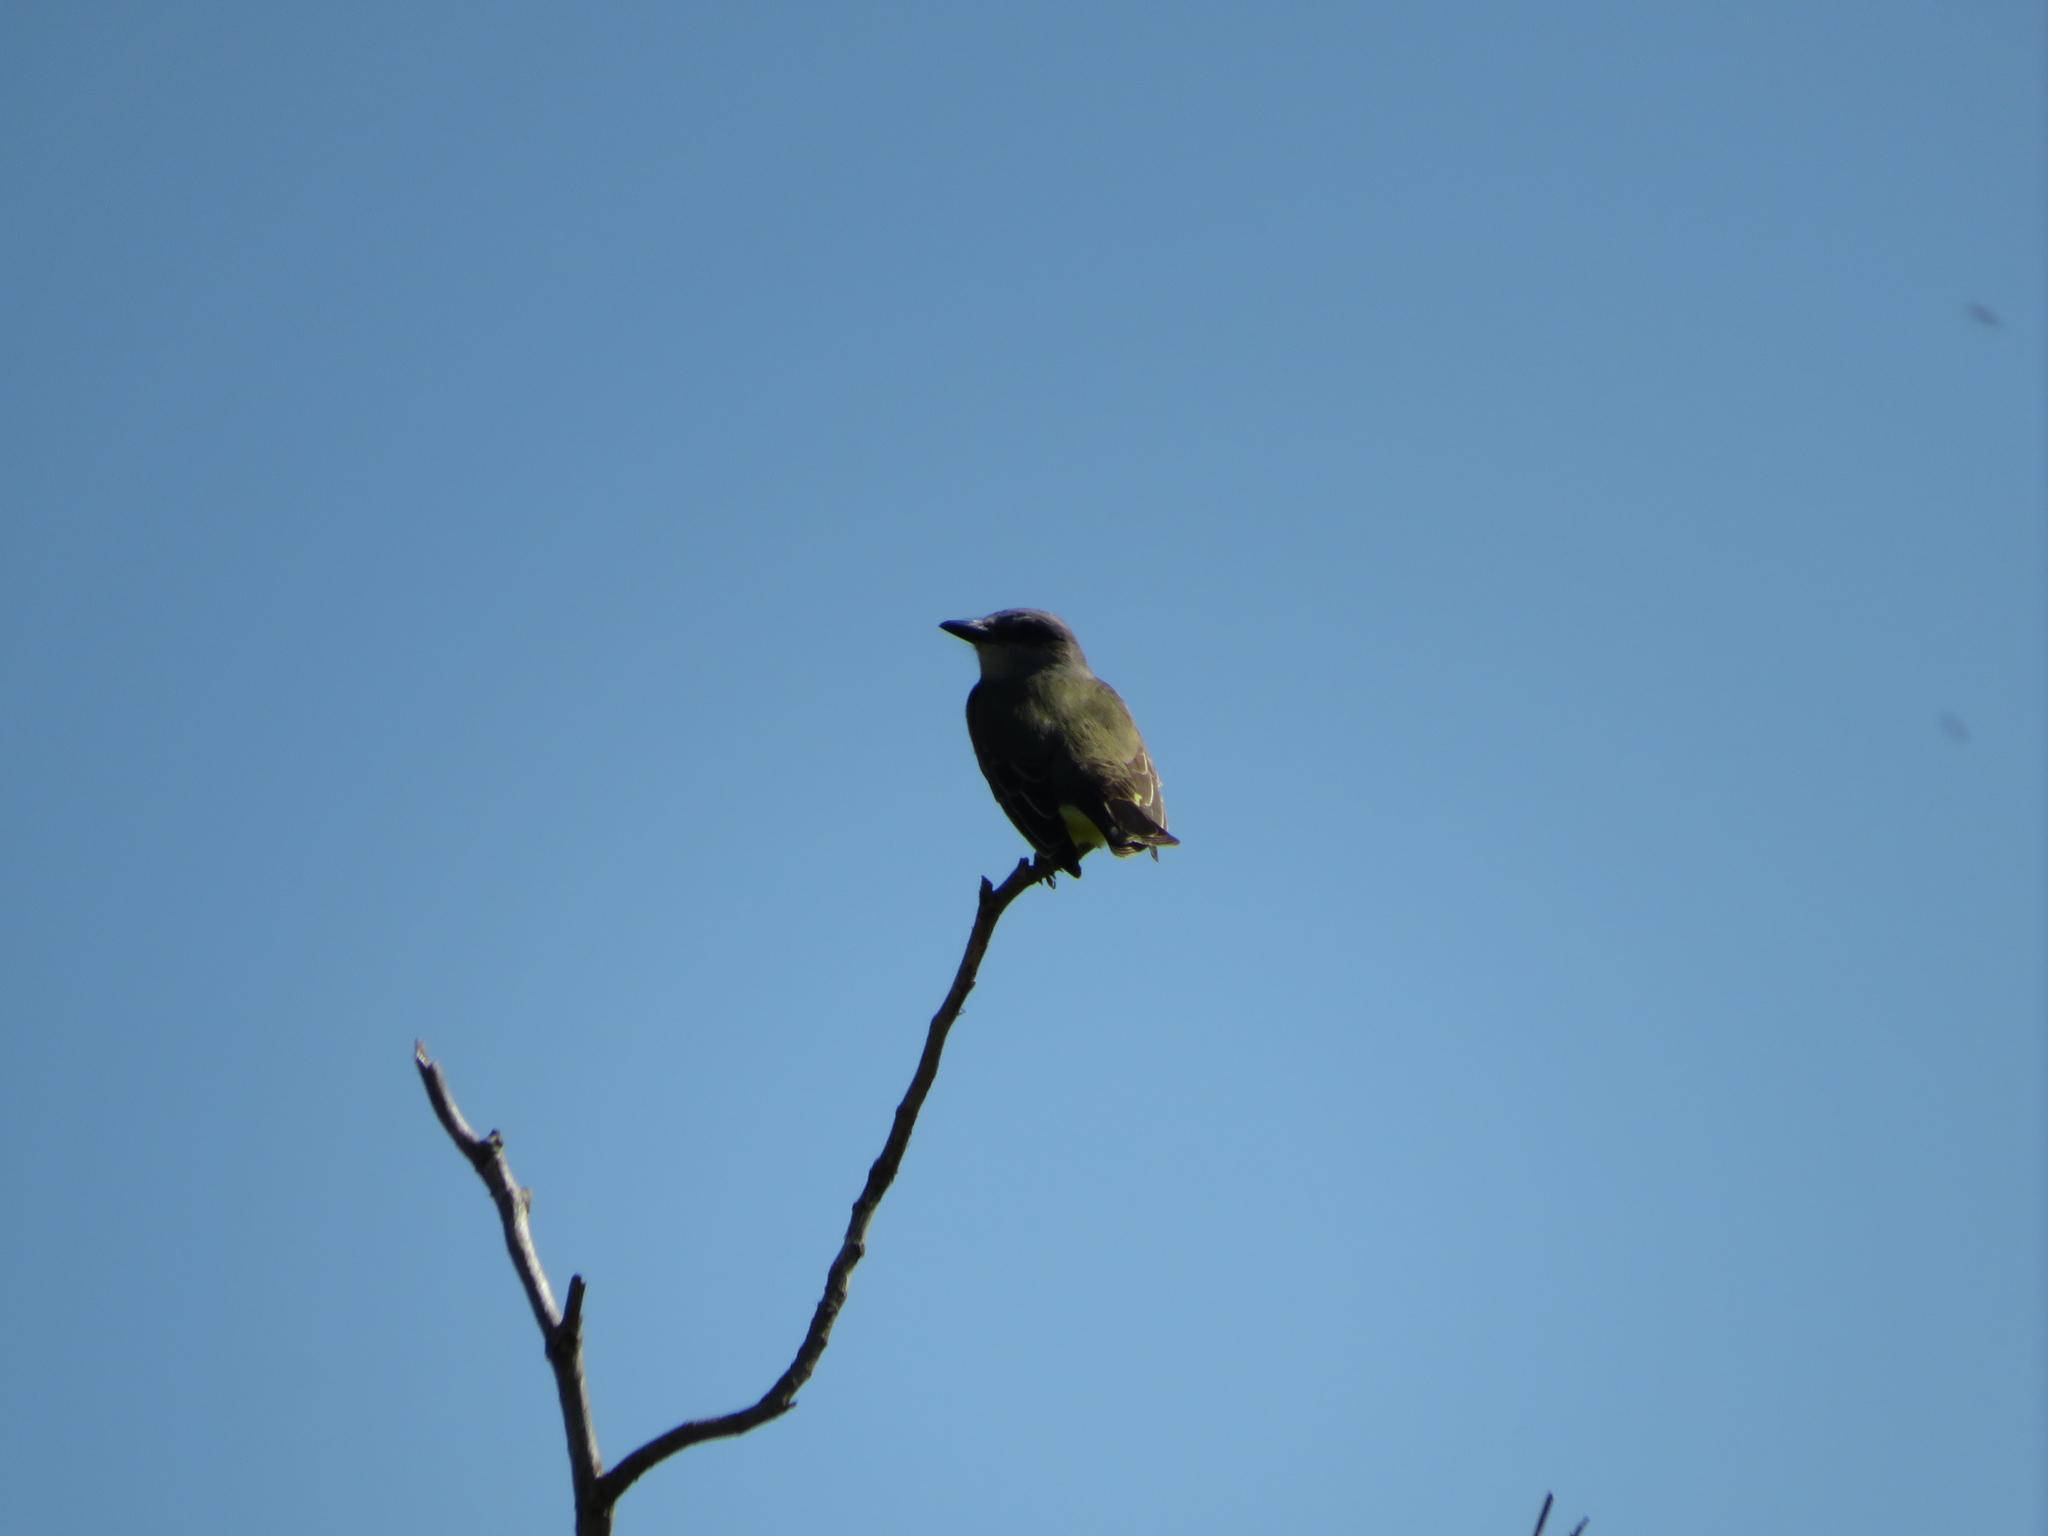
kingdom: Animalia
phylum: Chordata
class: Aves
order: Passeriformes
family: Tyrannidae
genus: Tyrannus
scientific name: Tyrannus melancholicus
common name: Tropical kingbird
